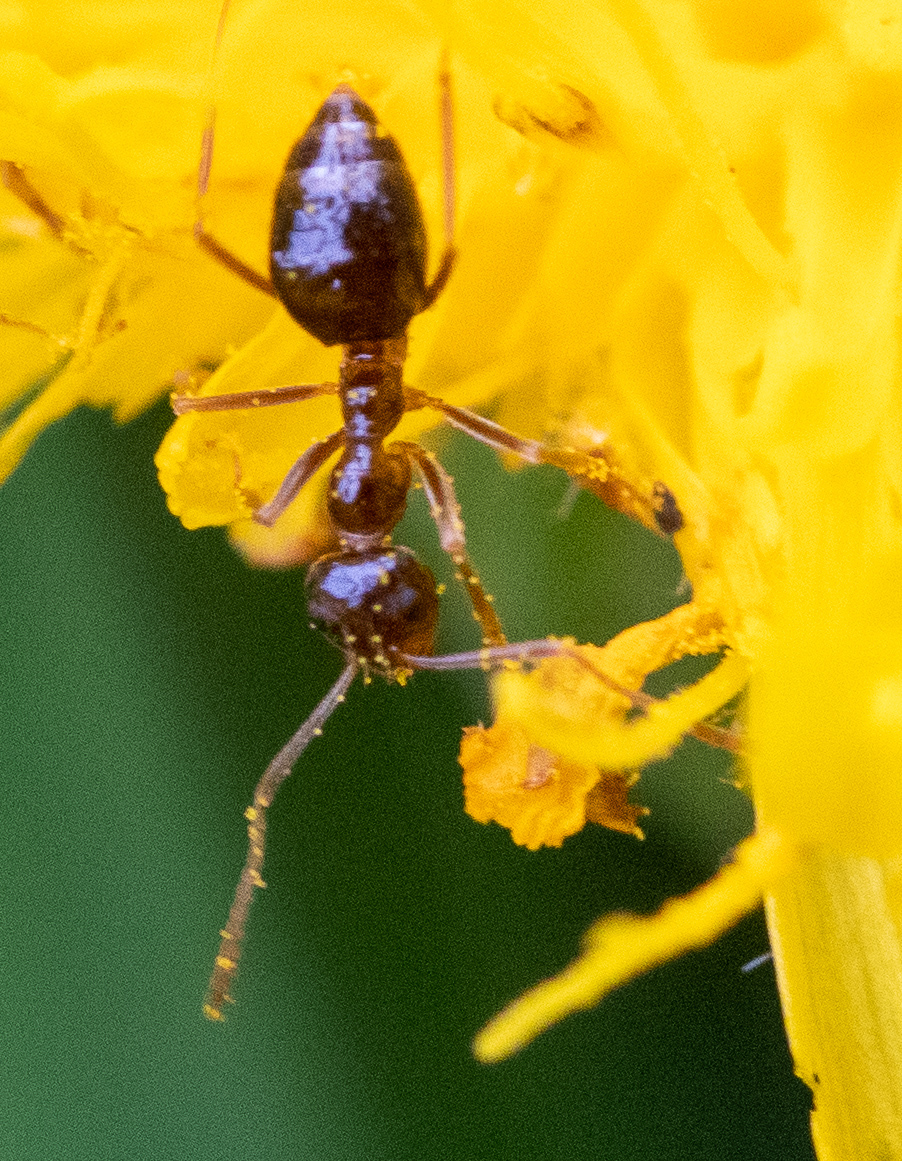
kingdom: Animalia
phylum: Arthropoda
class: Insecta
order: Hymenoptera
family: Formicidae
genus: Prenolepis
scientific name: Prenolepis imparis
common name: Small honey ant
